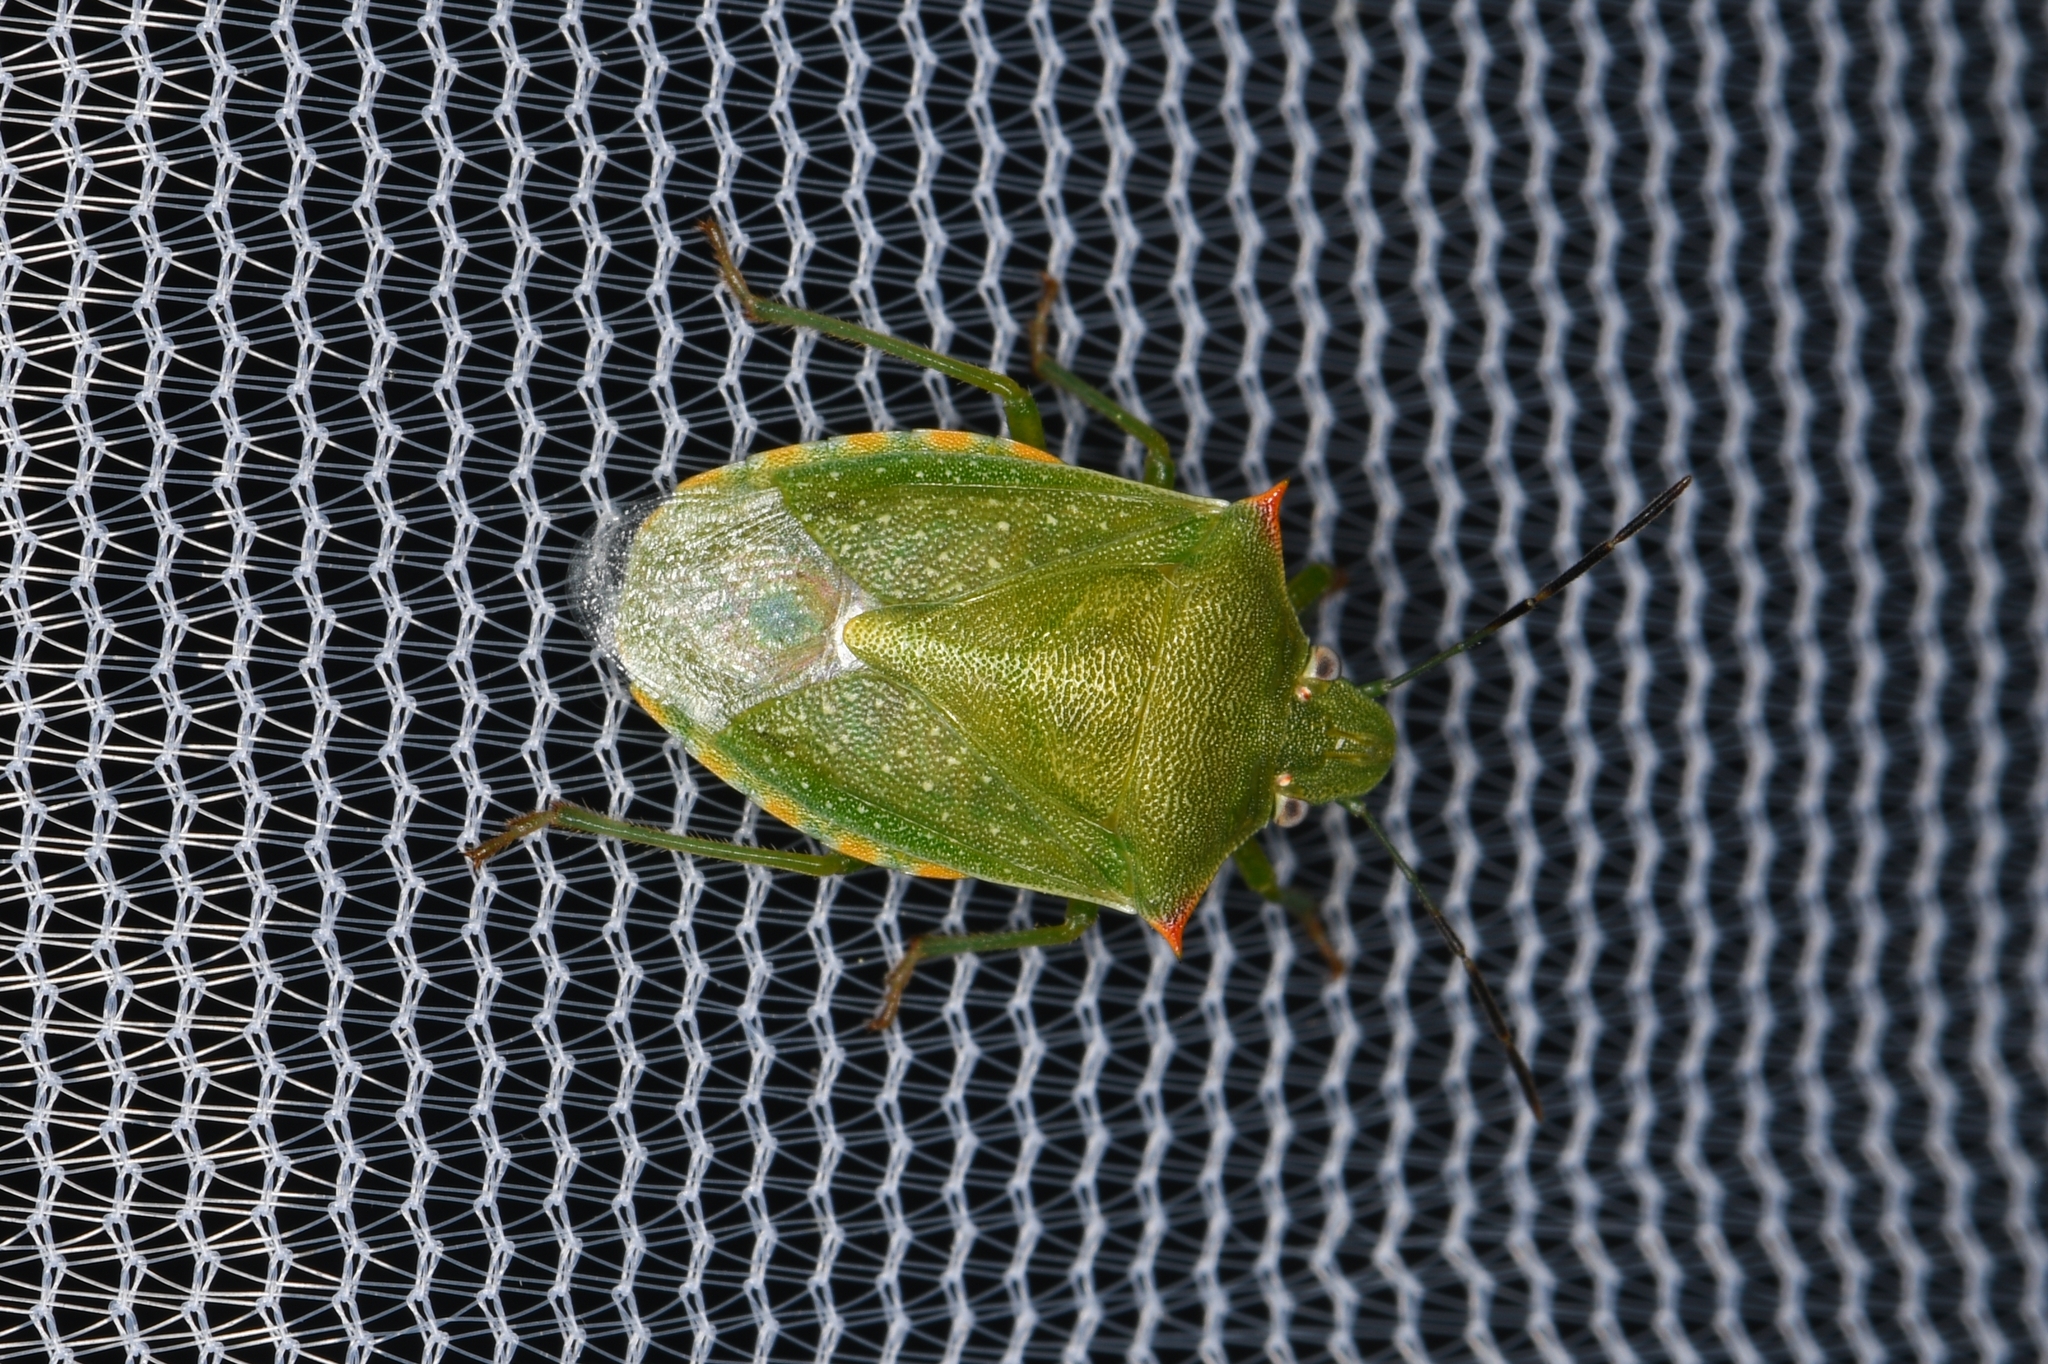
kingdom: Animalia
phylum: Arthropoda
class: Insecta
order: Hemiptera
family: Pentatomidae
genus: Thyanta
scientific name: Thyanta custator
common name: Stink bug
